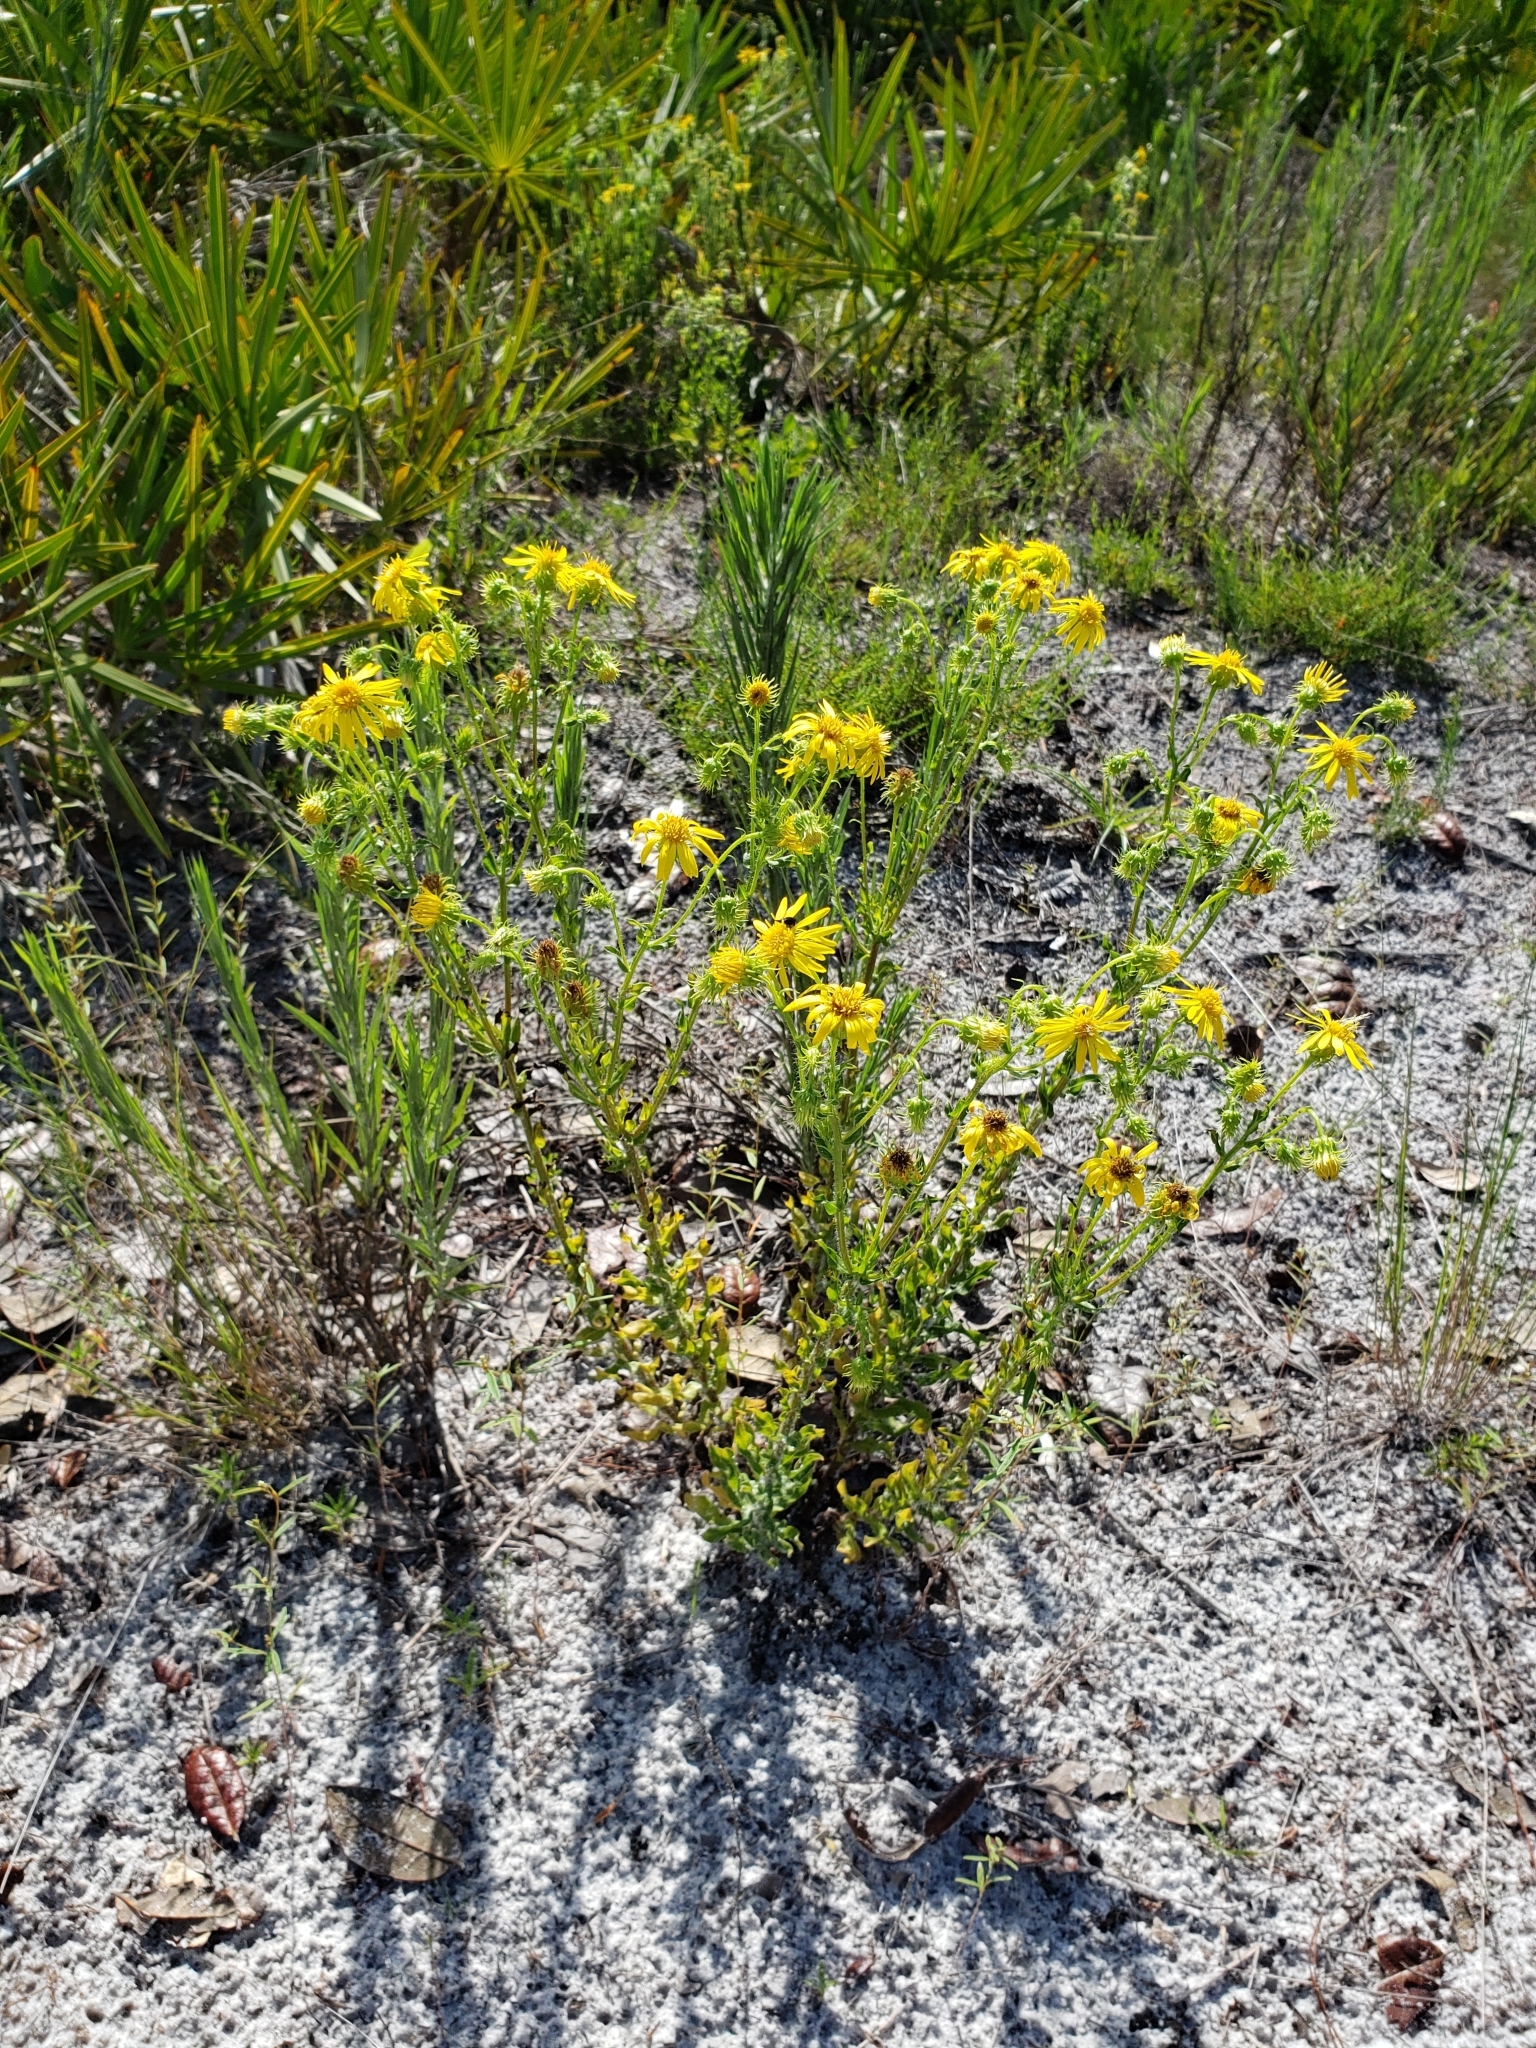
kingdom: Plantae
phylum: Tracheophyta
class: Magnoliopsida
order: Asterales
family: Asteraceae
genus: Chrysopsis
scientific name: Chrysopsis subulata
